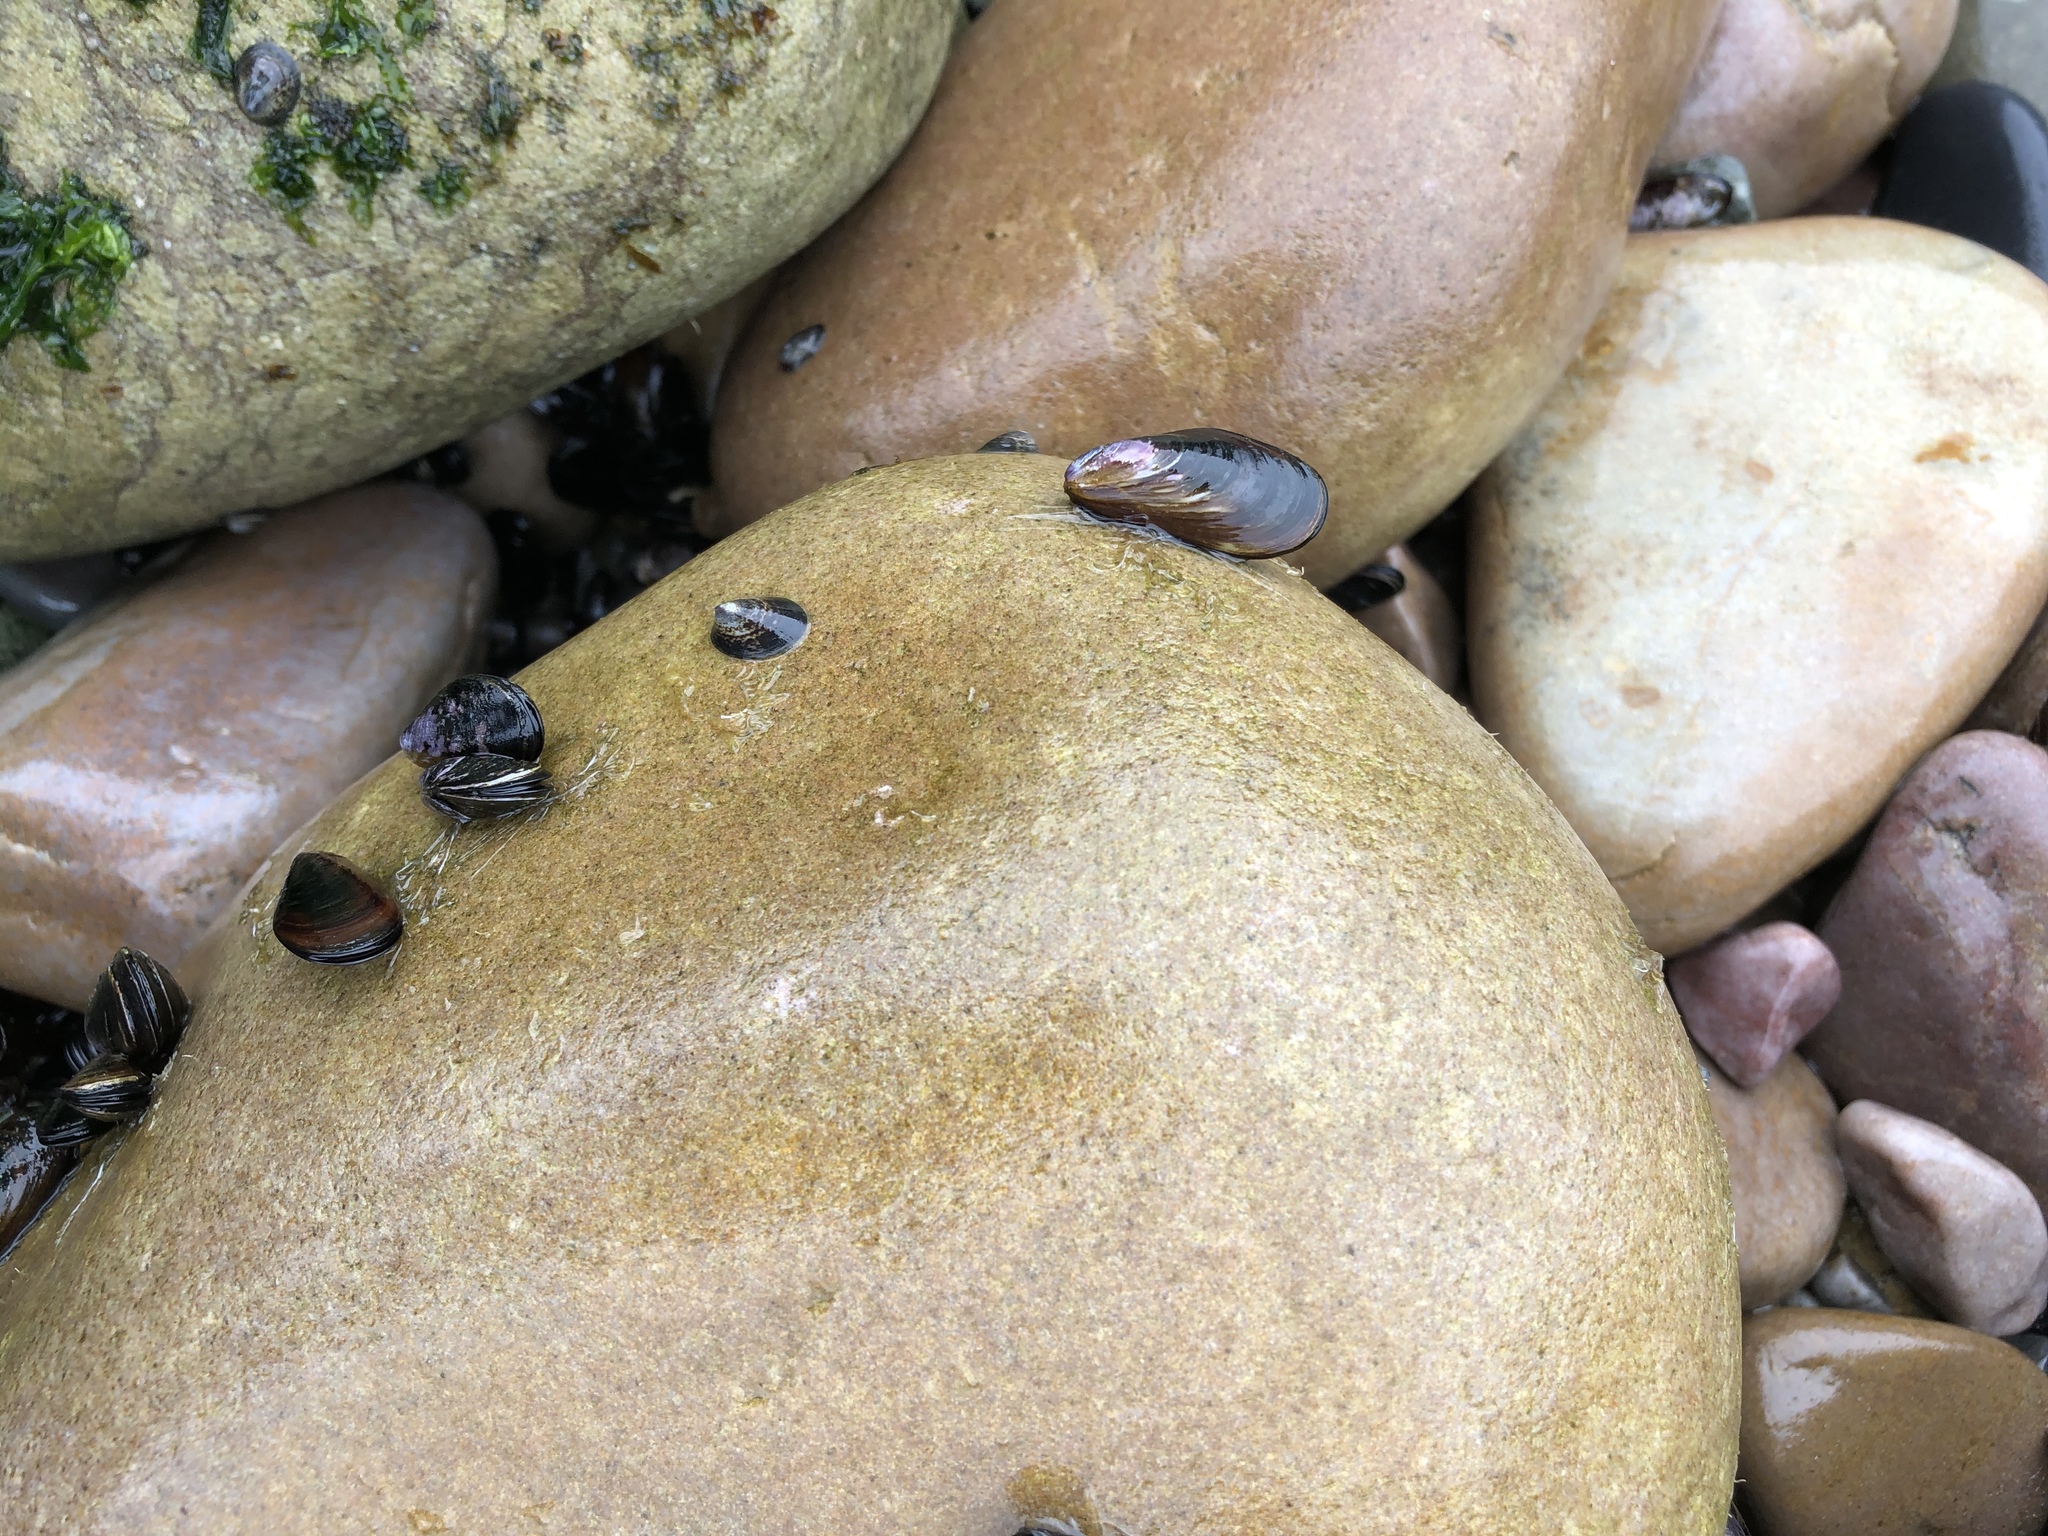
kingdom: Animalia
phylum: Mollusca
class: Bivalvia
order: Mytilida
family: Mytilidae
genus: Semimytilus
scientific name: Semimytilus patagonicus
